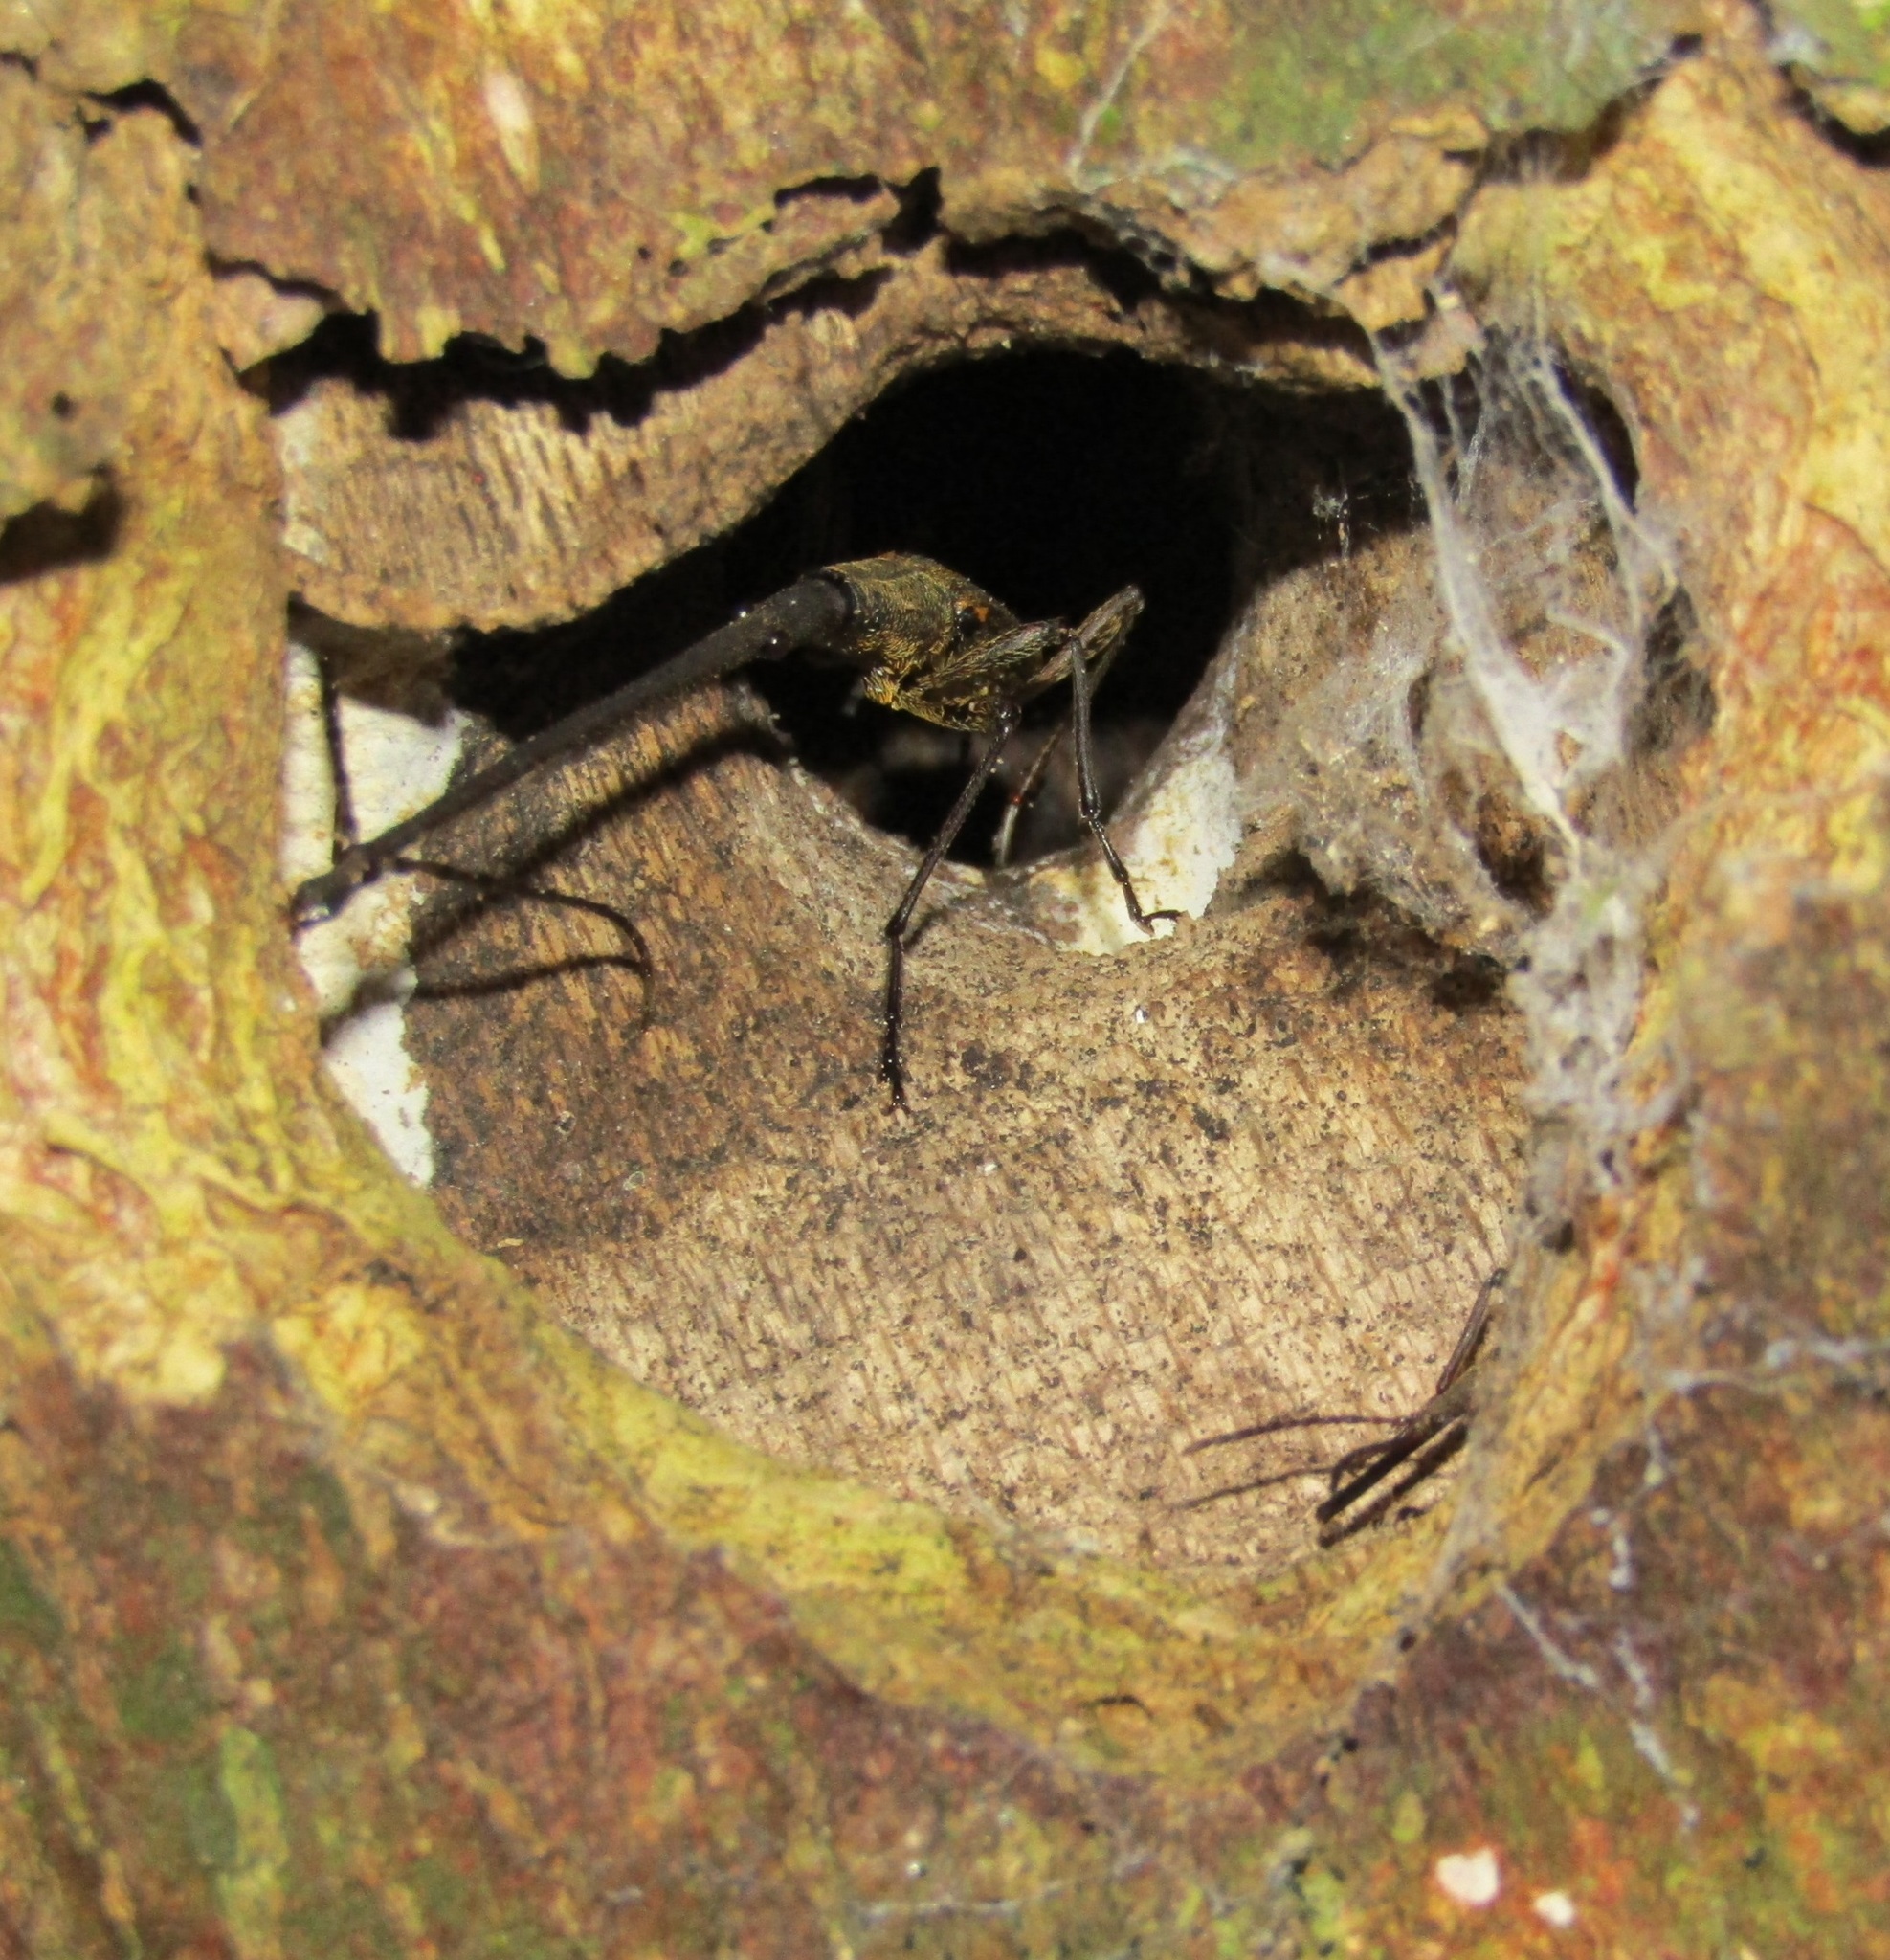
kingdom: Animalia
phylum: Arthropoda
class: Insecta
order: Coleoptera
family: Brentidae
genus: Lasiorhynchus
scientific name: Lasiorhynchus barbicornis
